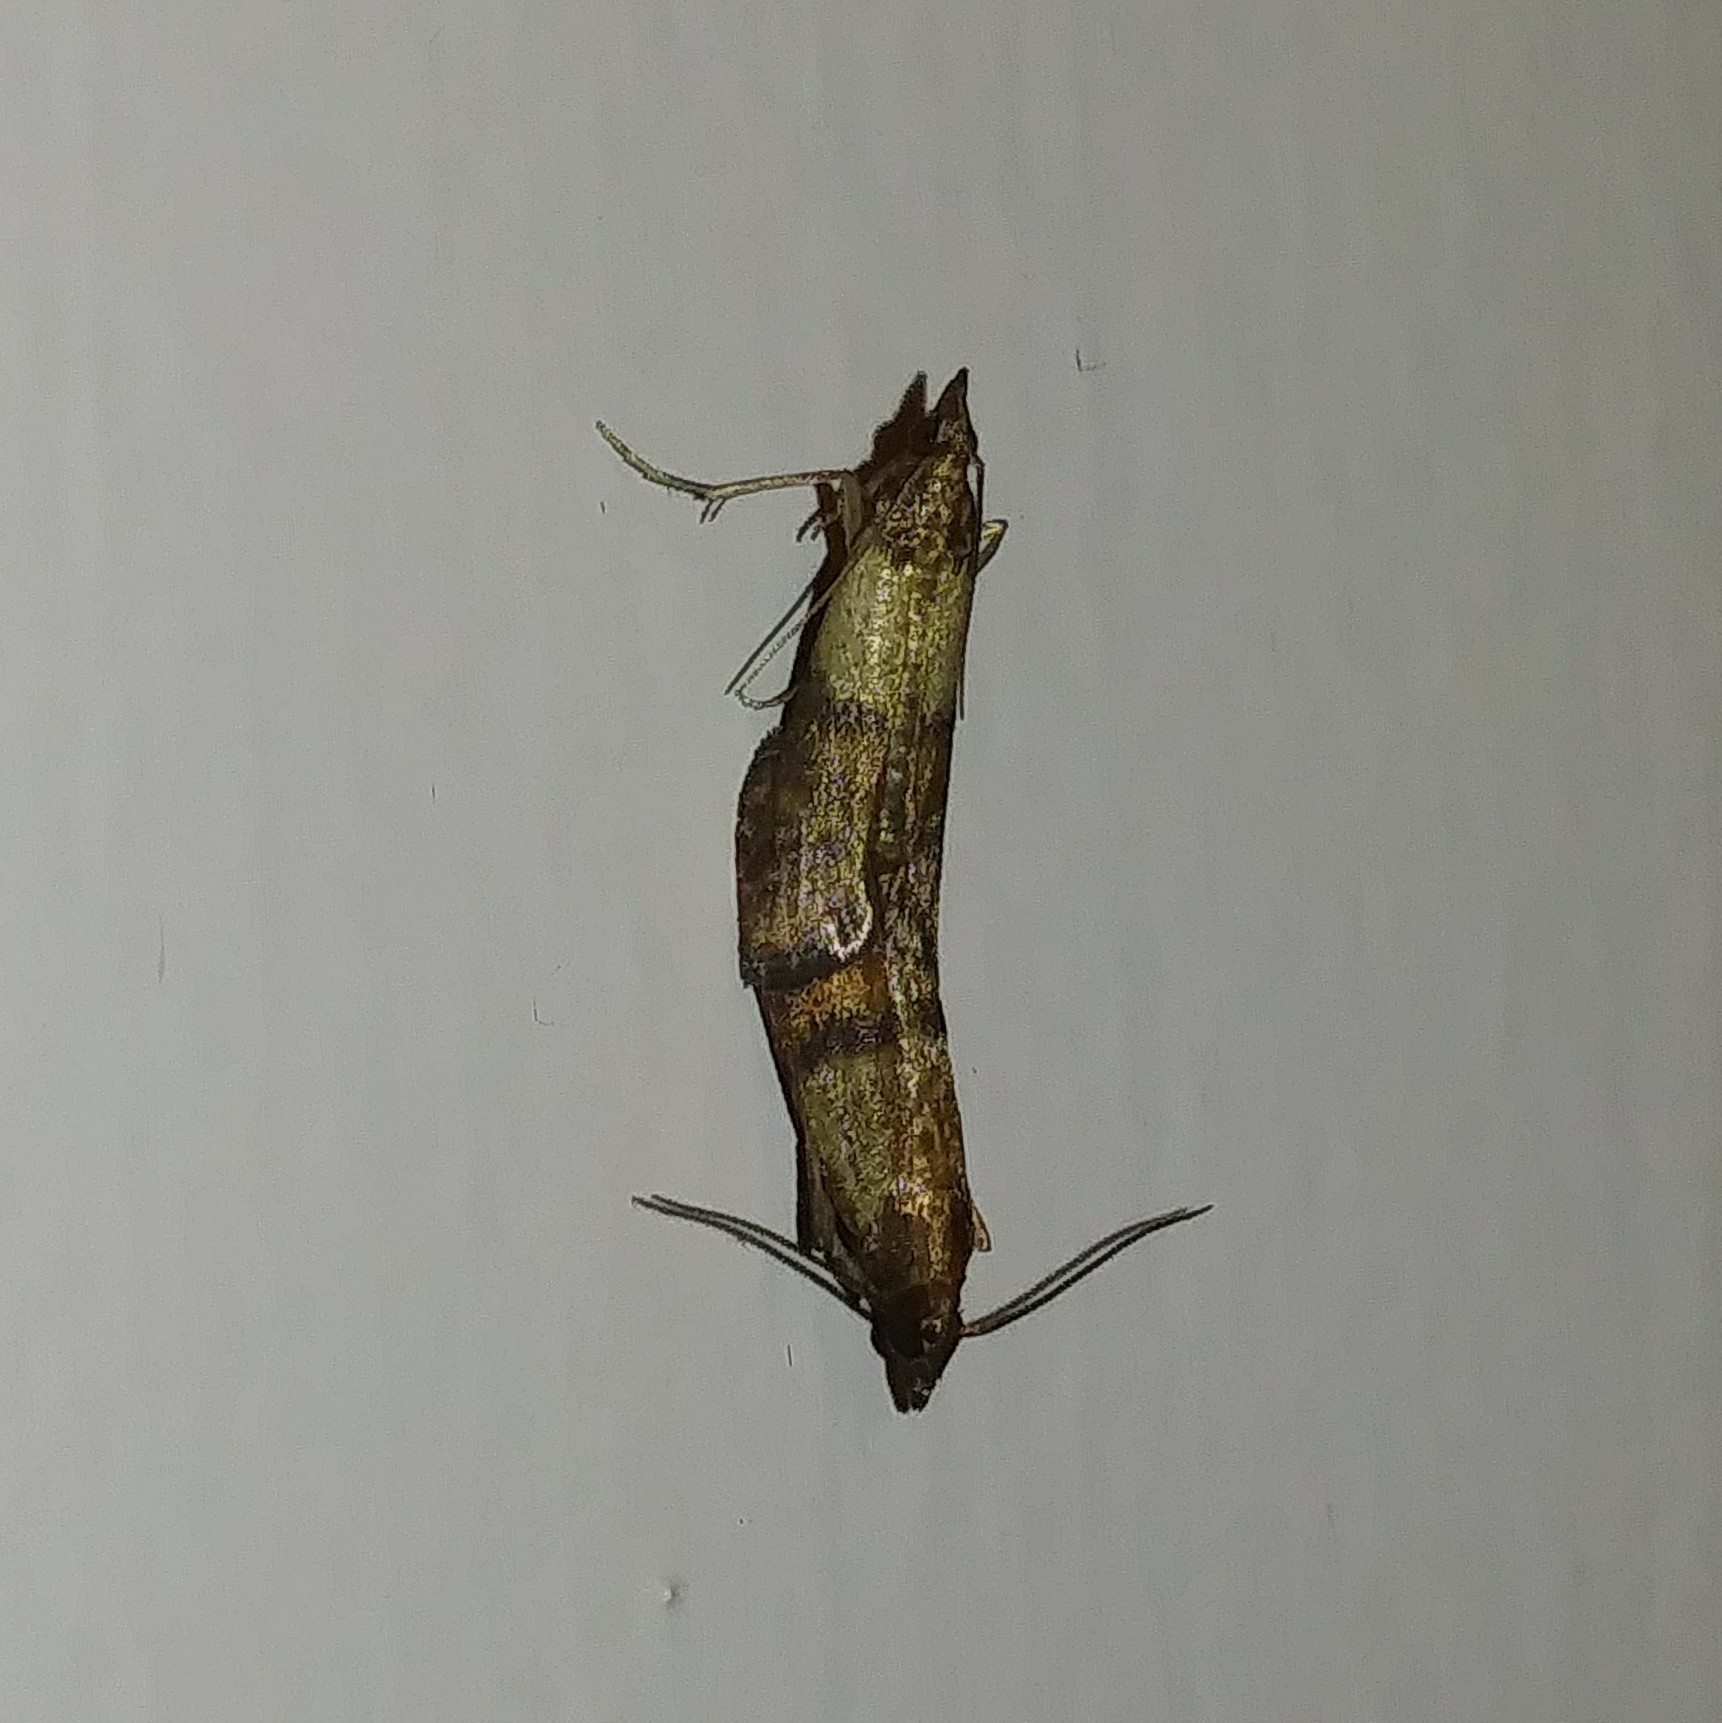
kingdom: Animalia
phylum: Arthropoda
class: Insecta
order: Lepidoptera
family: Pyralidae
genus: Plodia
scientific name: Plodia interpunctella
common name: Indian meal moth
